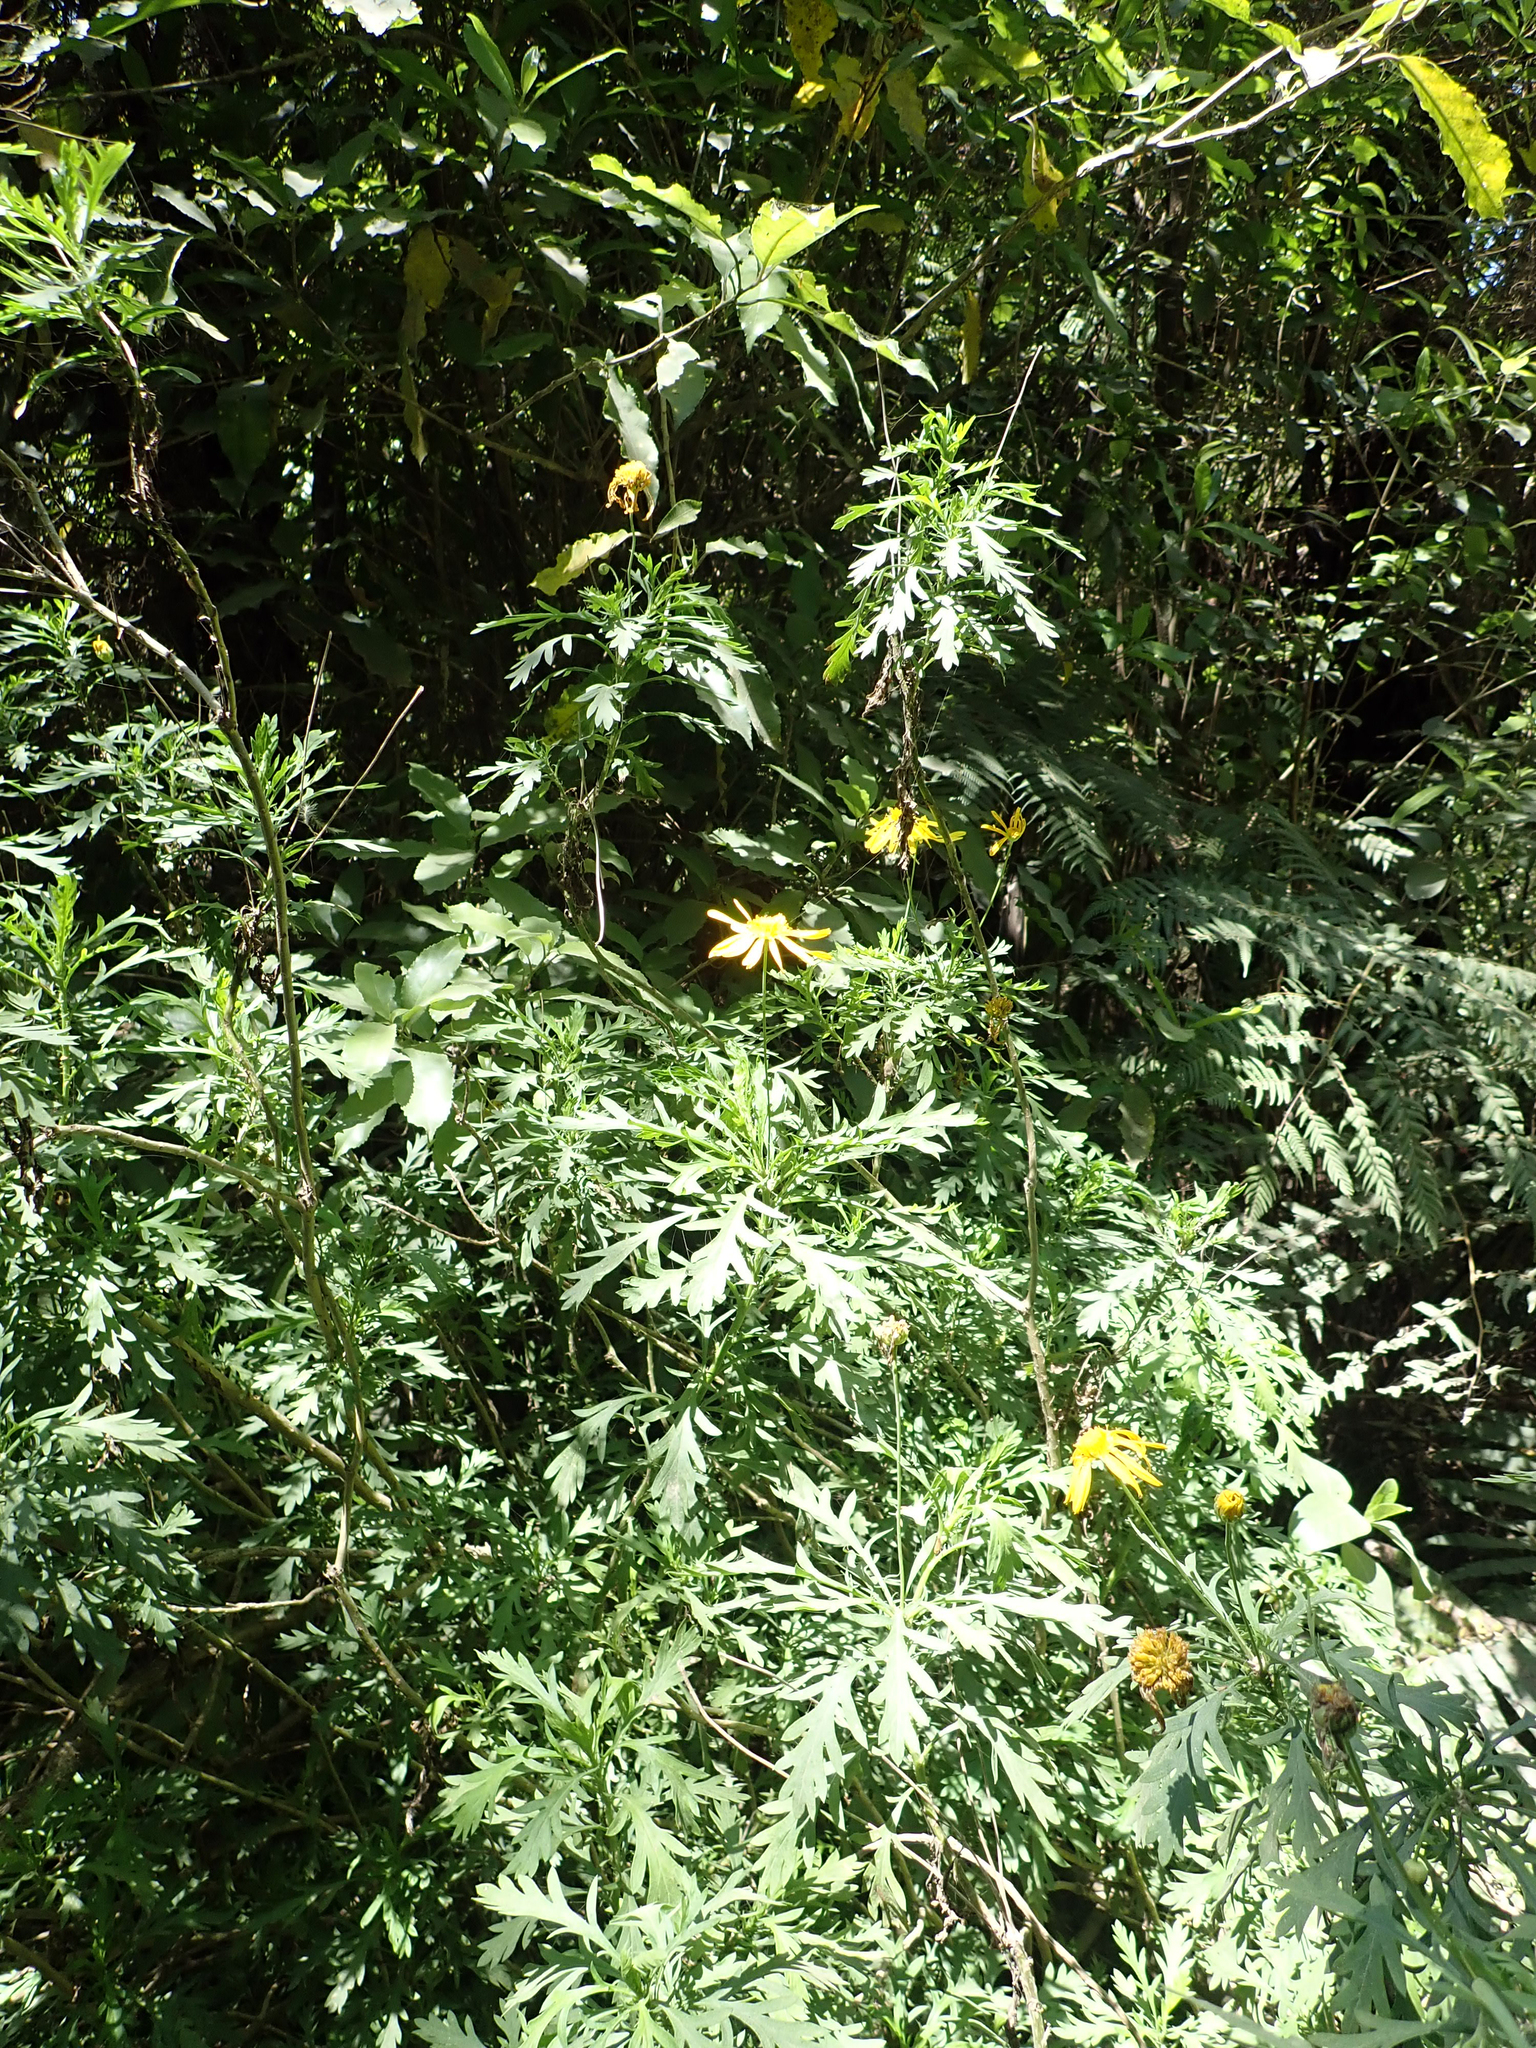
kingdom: Plantae
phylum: Tracheophyta
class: Magnoliopsida
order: Asterales
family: Asteraceae
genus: Euryops
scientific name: Euryops chrysanthemoides
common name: Bull's eye
